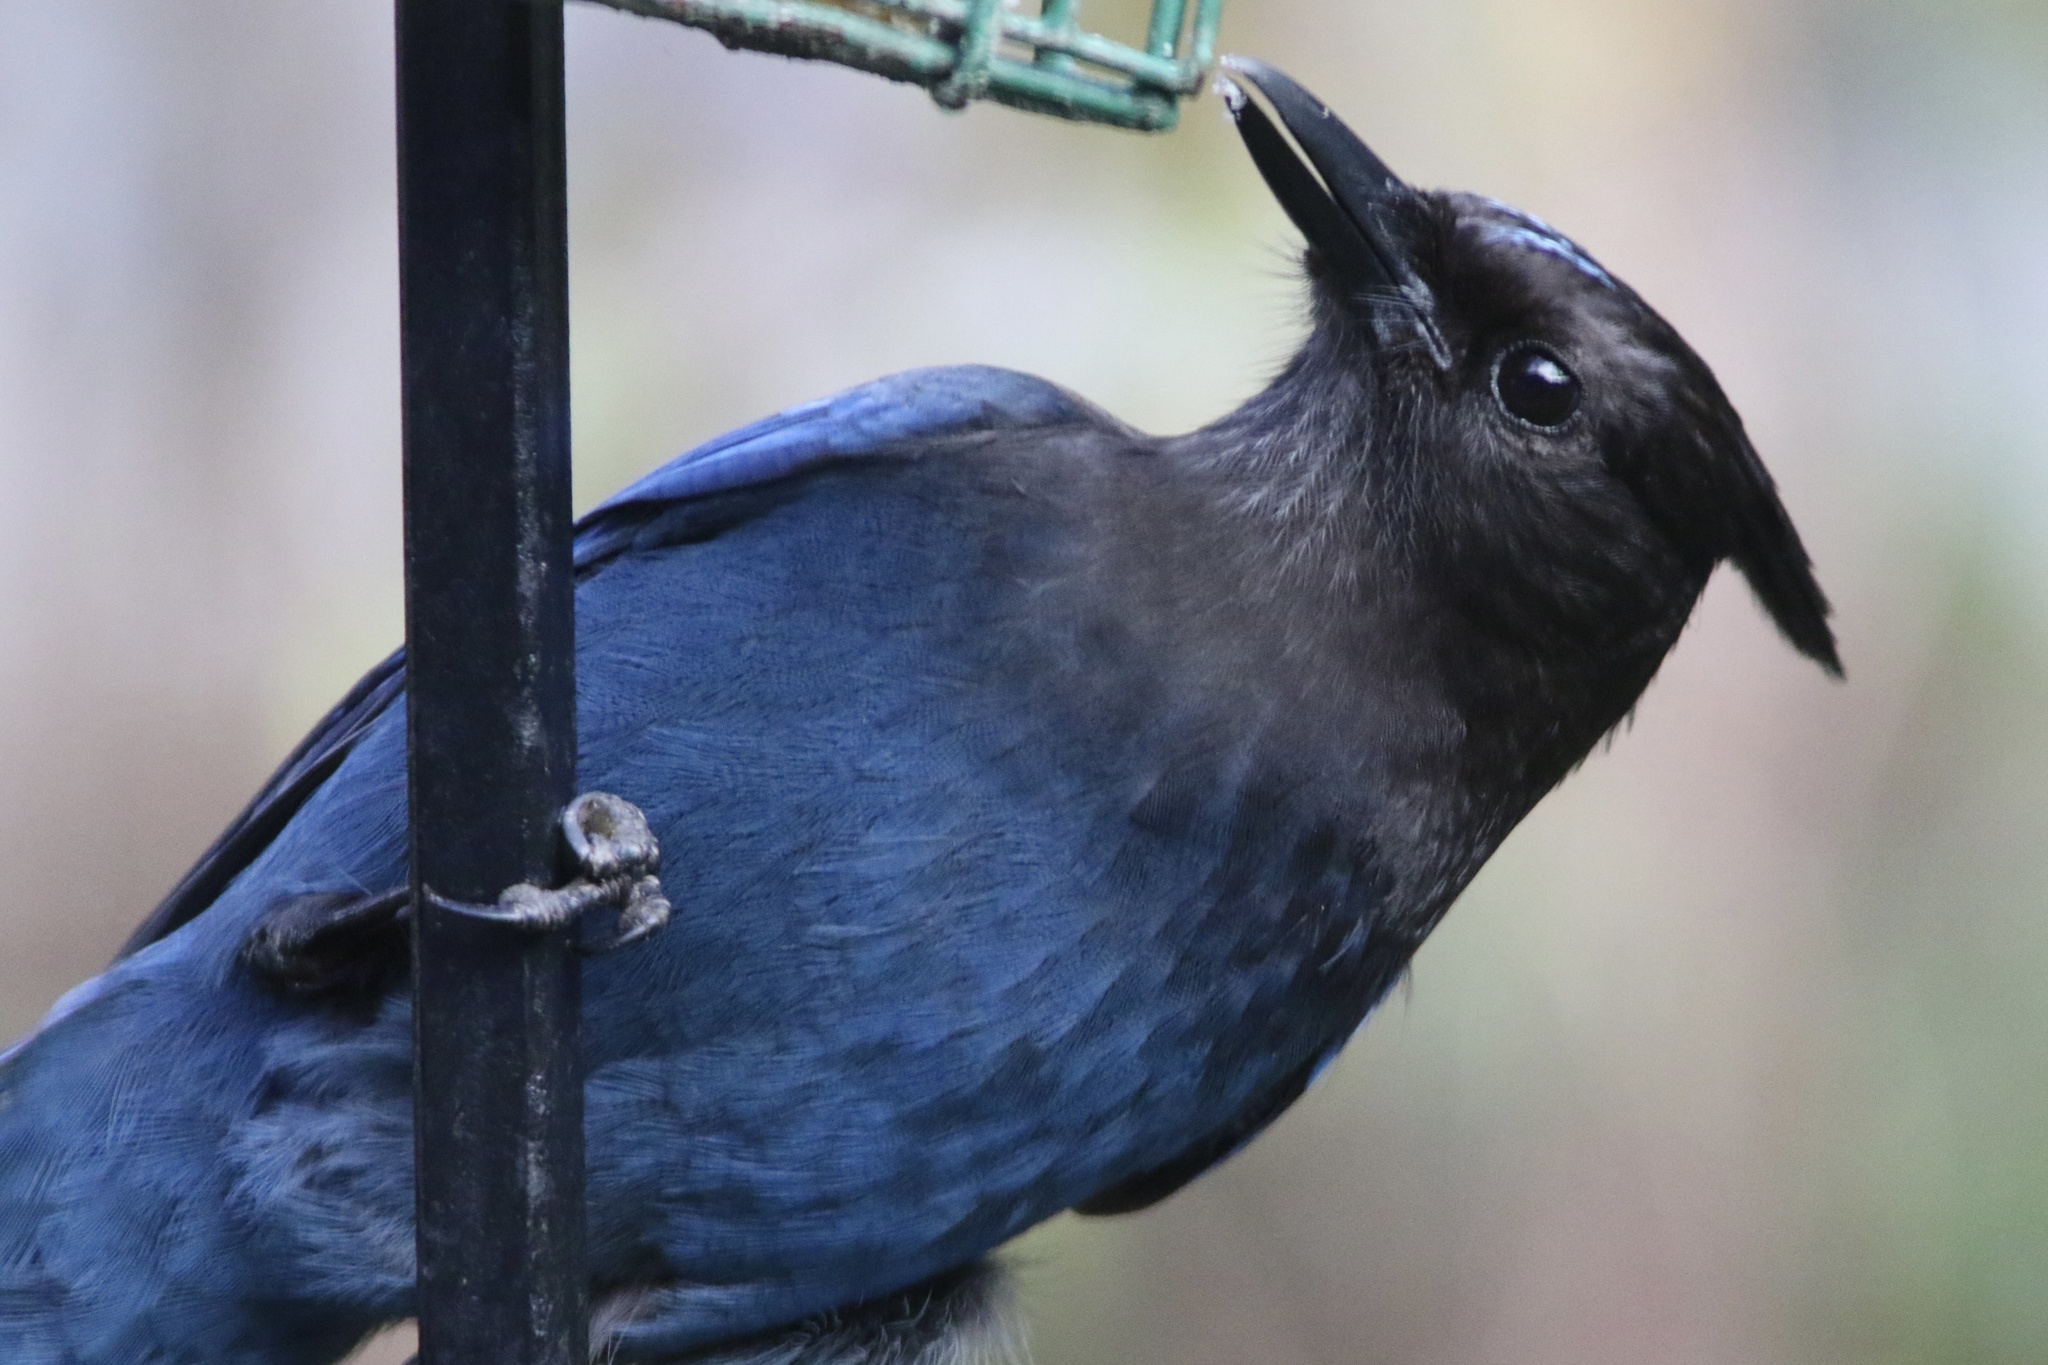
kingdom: Animalia
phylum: Chordata
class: Aves
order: Passeriformes
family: Corvidae
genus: Cyanocitta
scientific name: Cyanocitta stelleri
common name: Steller's jay
